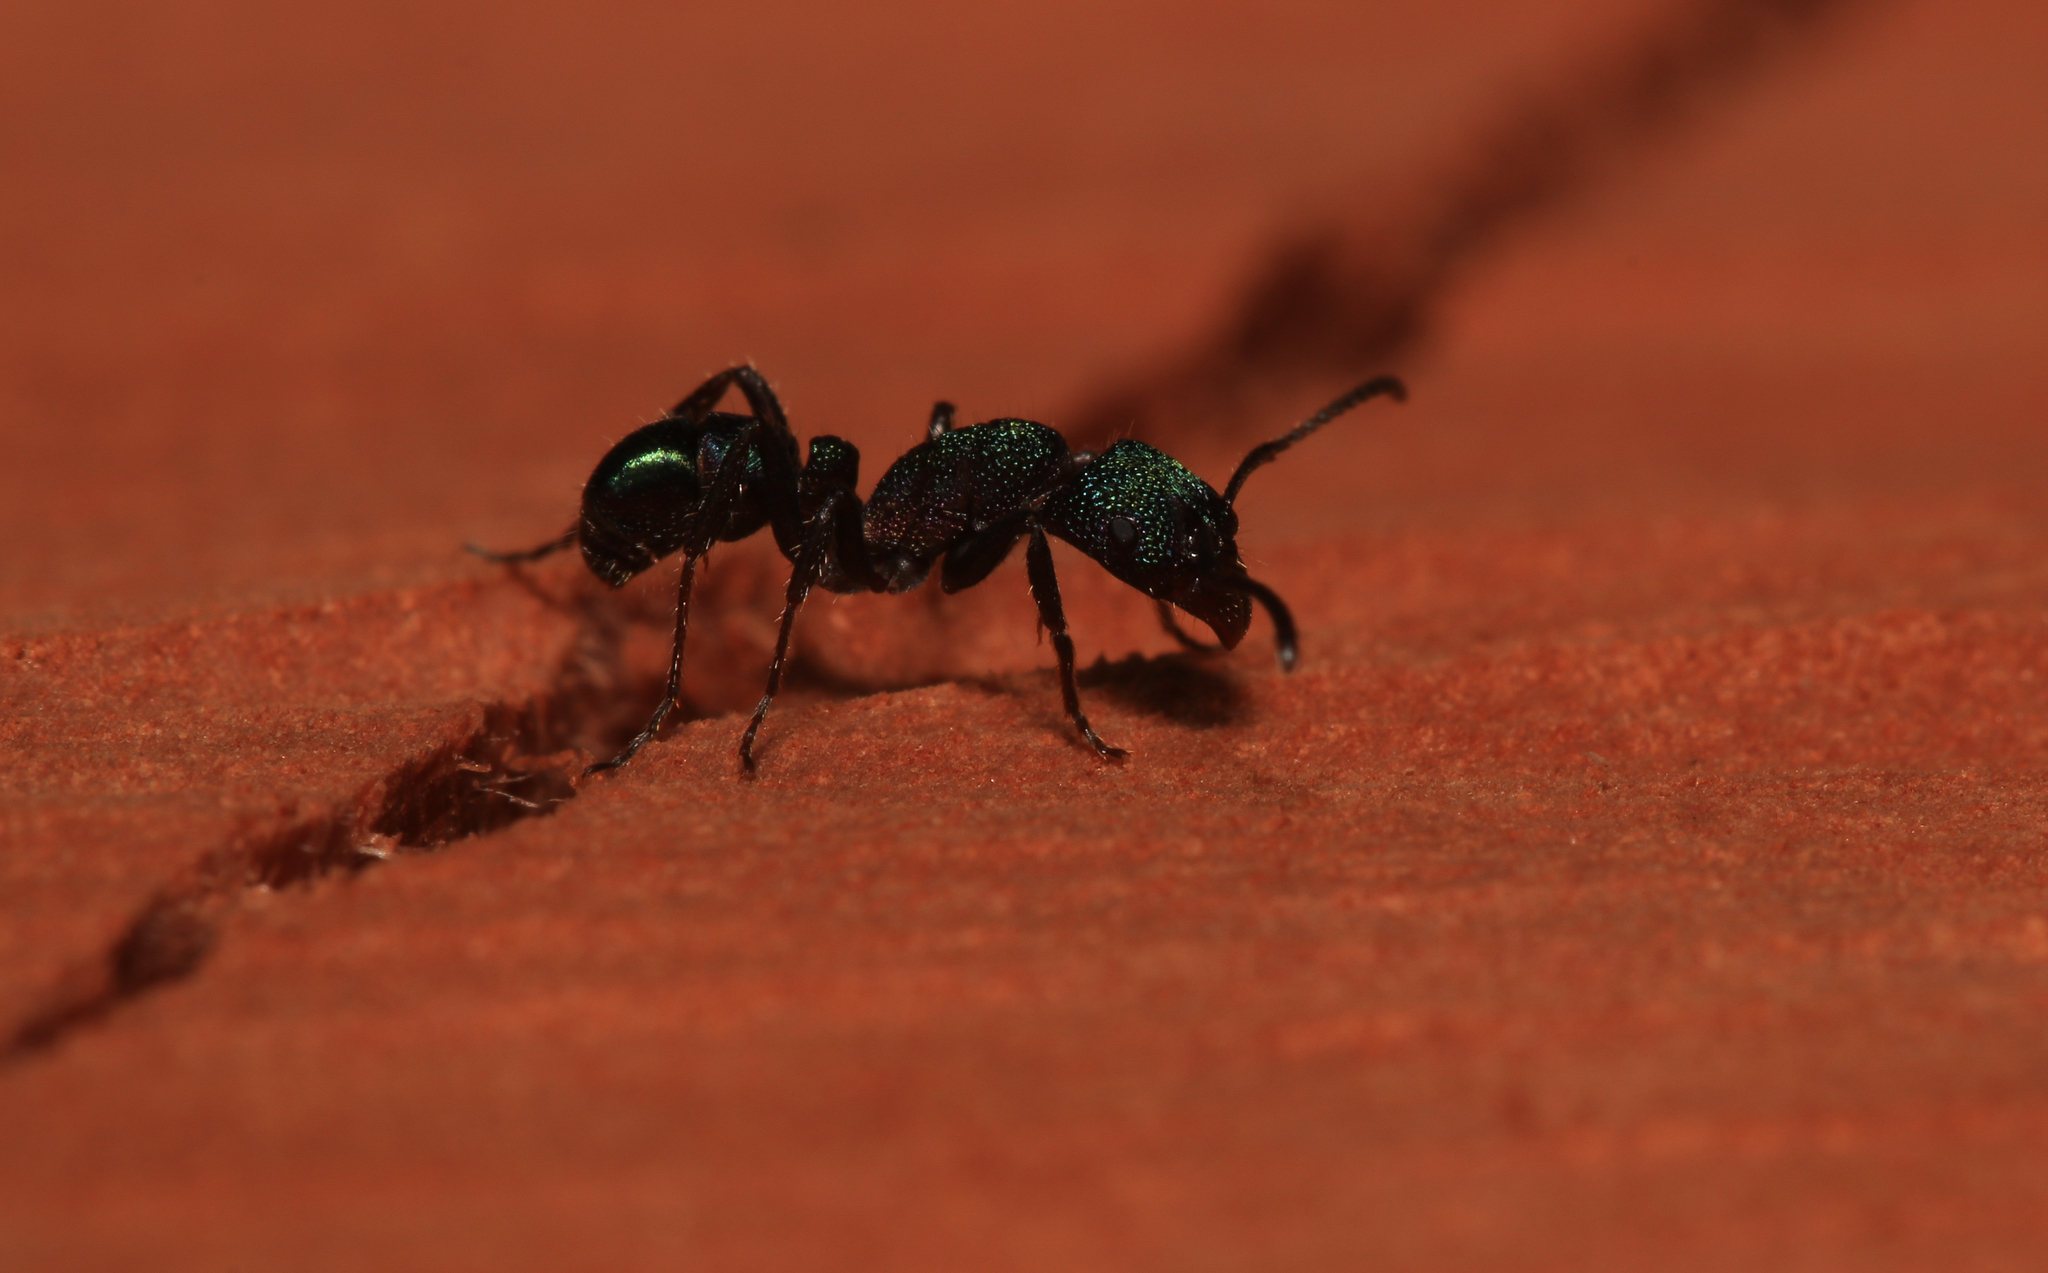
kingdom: Animalia
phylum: Arthropoda
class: Insecta
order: Hymenoptera
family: Formicidae
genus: Rhytidoponera
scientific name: Rhytidoponera metallica
